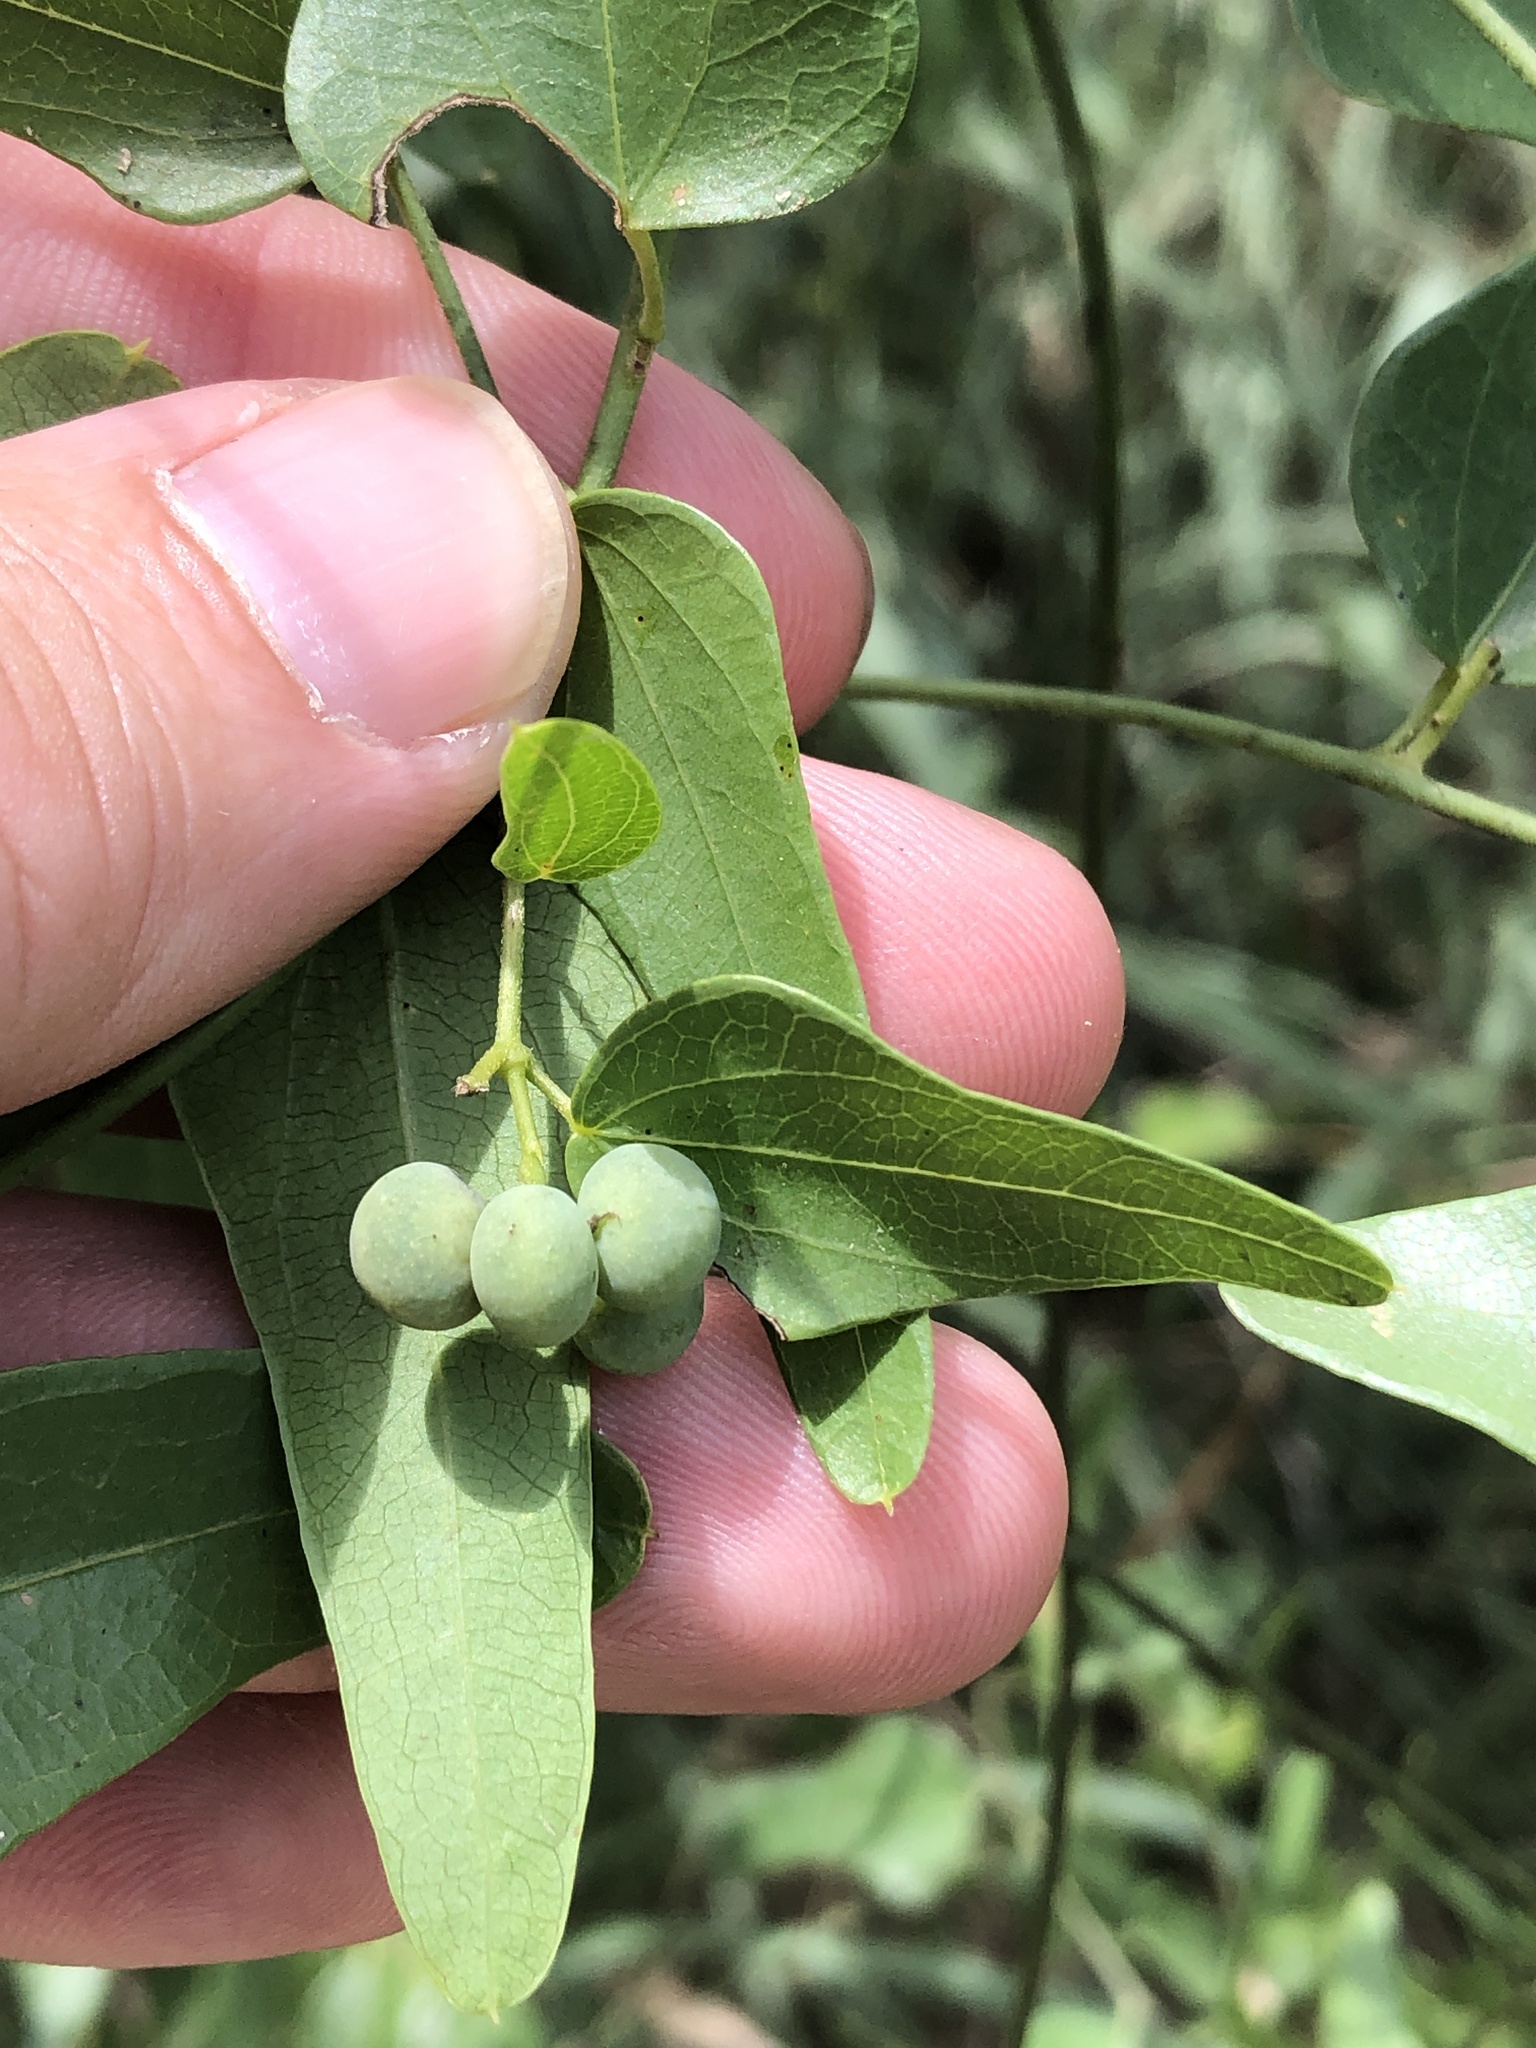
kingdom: Plantae
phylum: Tracheophyta
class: Magnoliopsida
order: Ranunculales
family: Menispermaceae
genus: Cocculus
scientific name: Cocculus diversifolius
